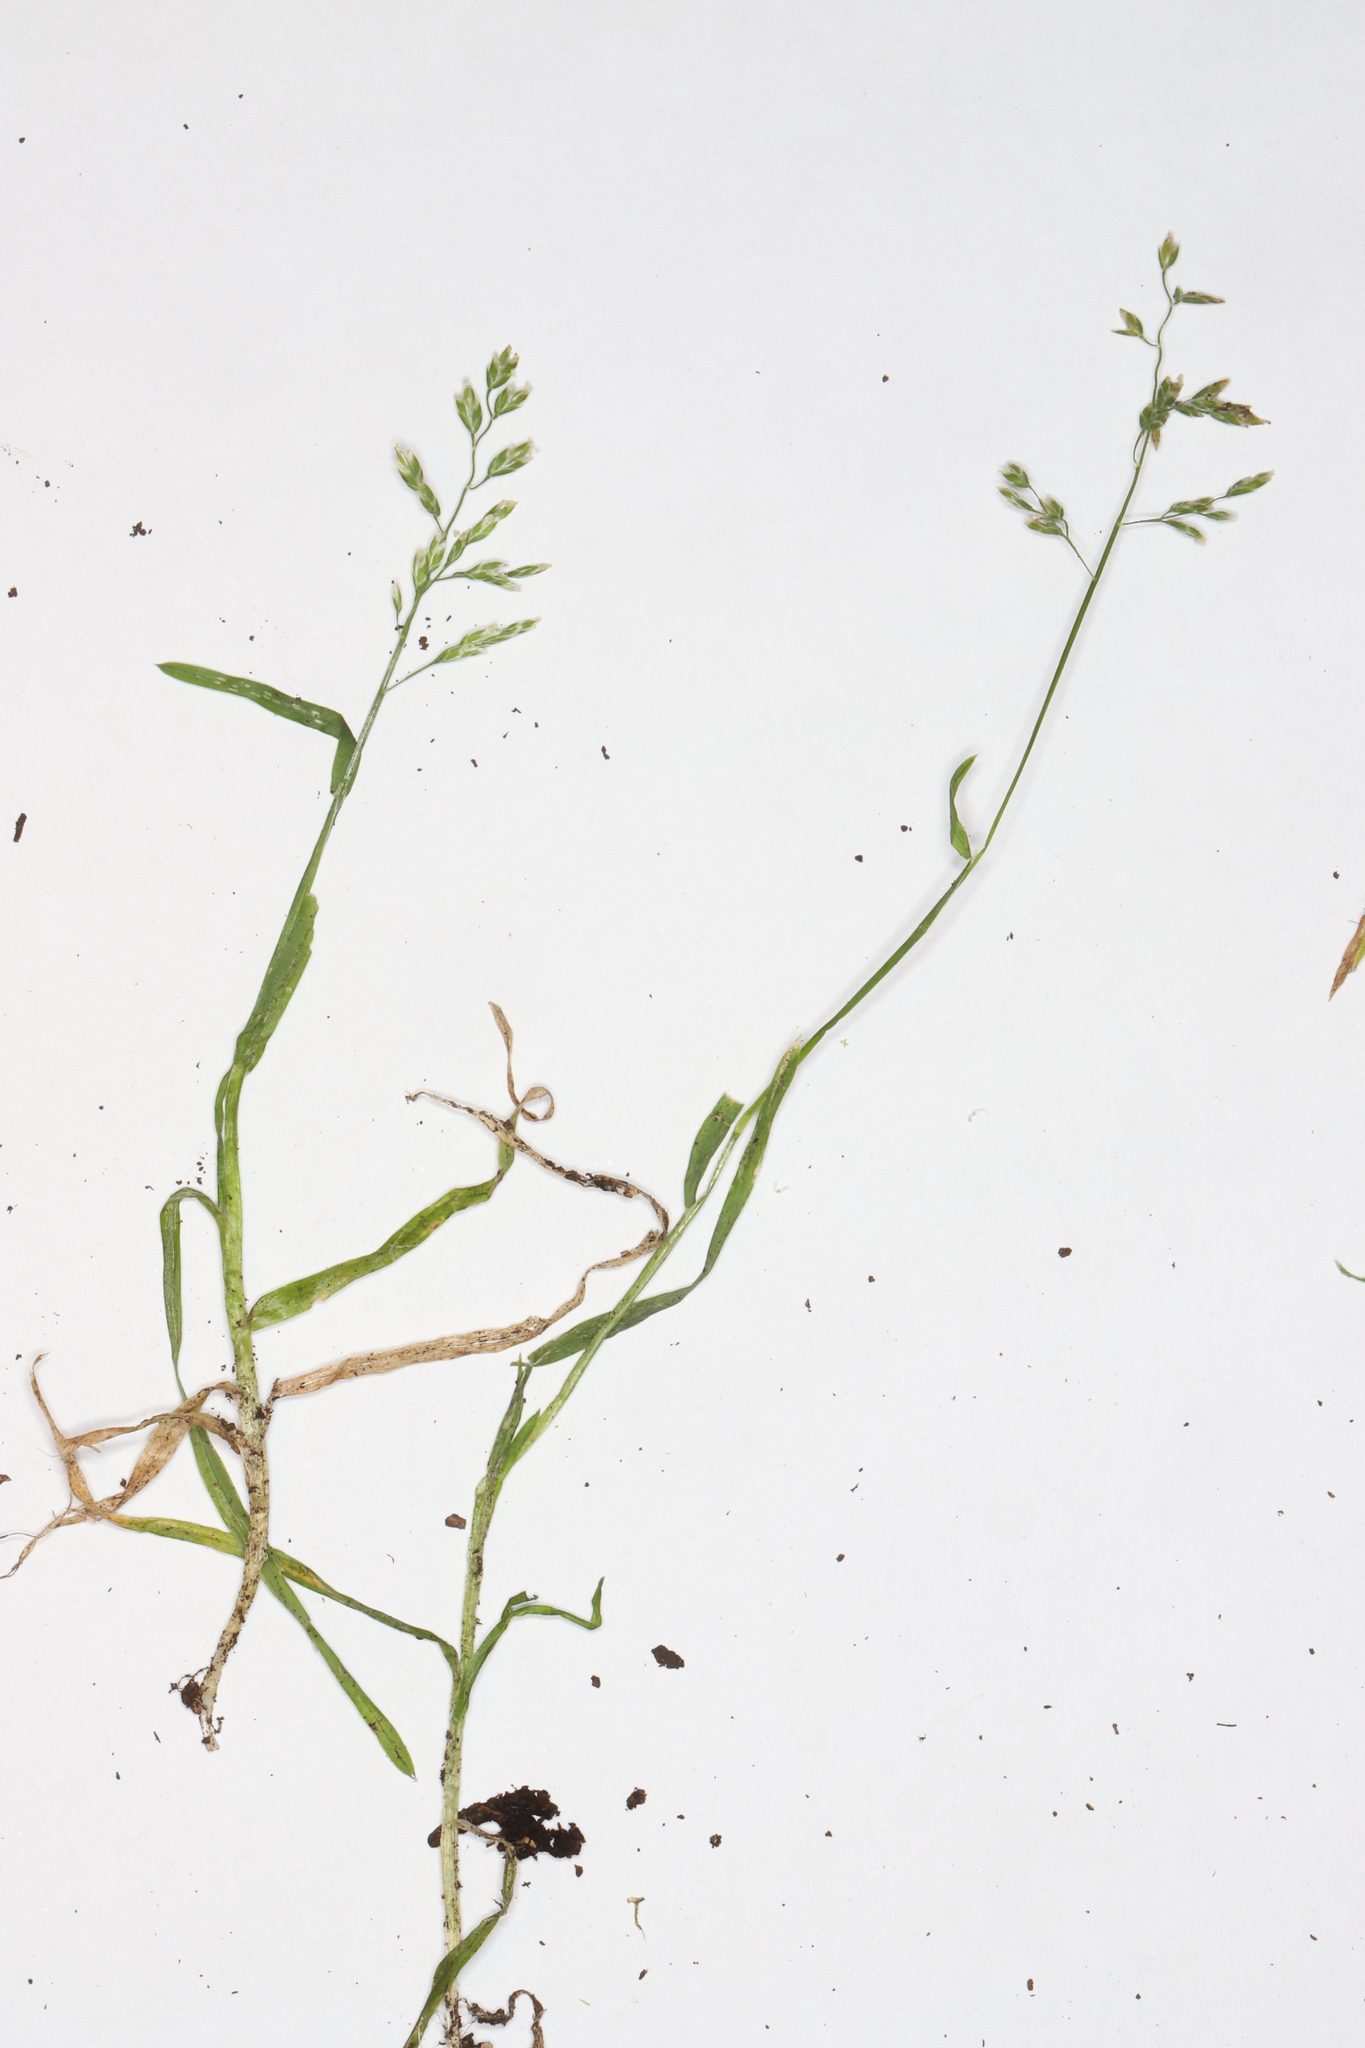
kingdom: Plantae
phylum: Tracheophyta
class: Liliopsida
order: Poales
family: Poaceae
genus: Poa
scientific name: Poa annua
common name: Annual bluegrass
